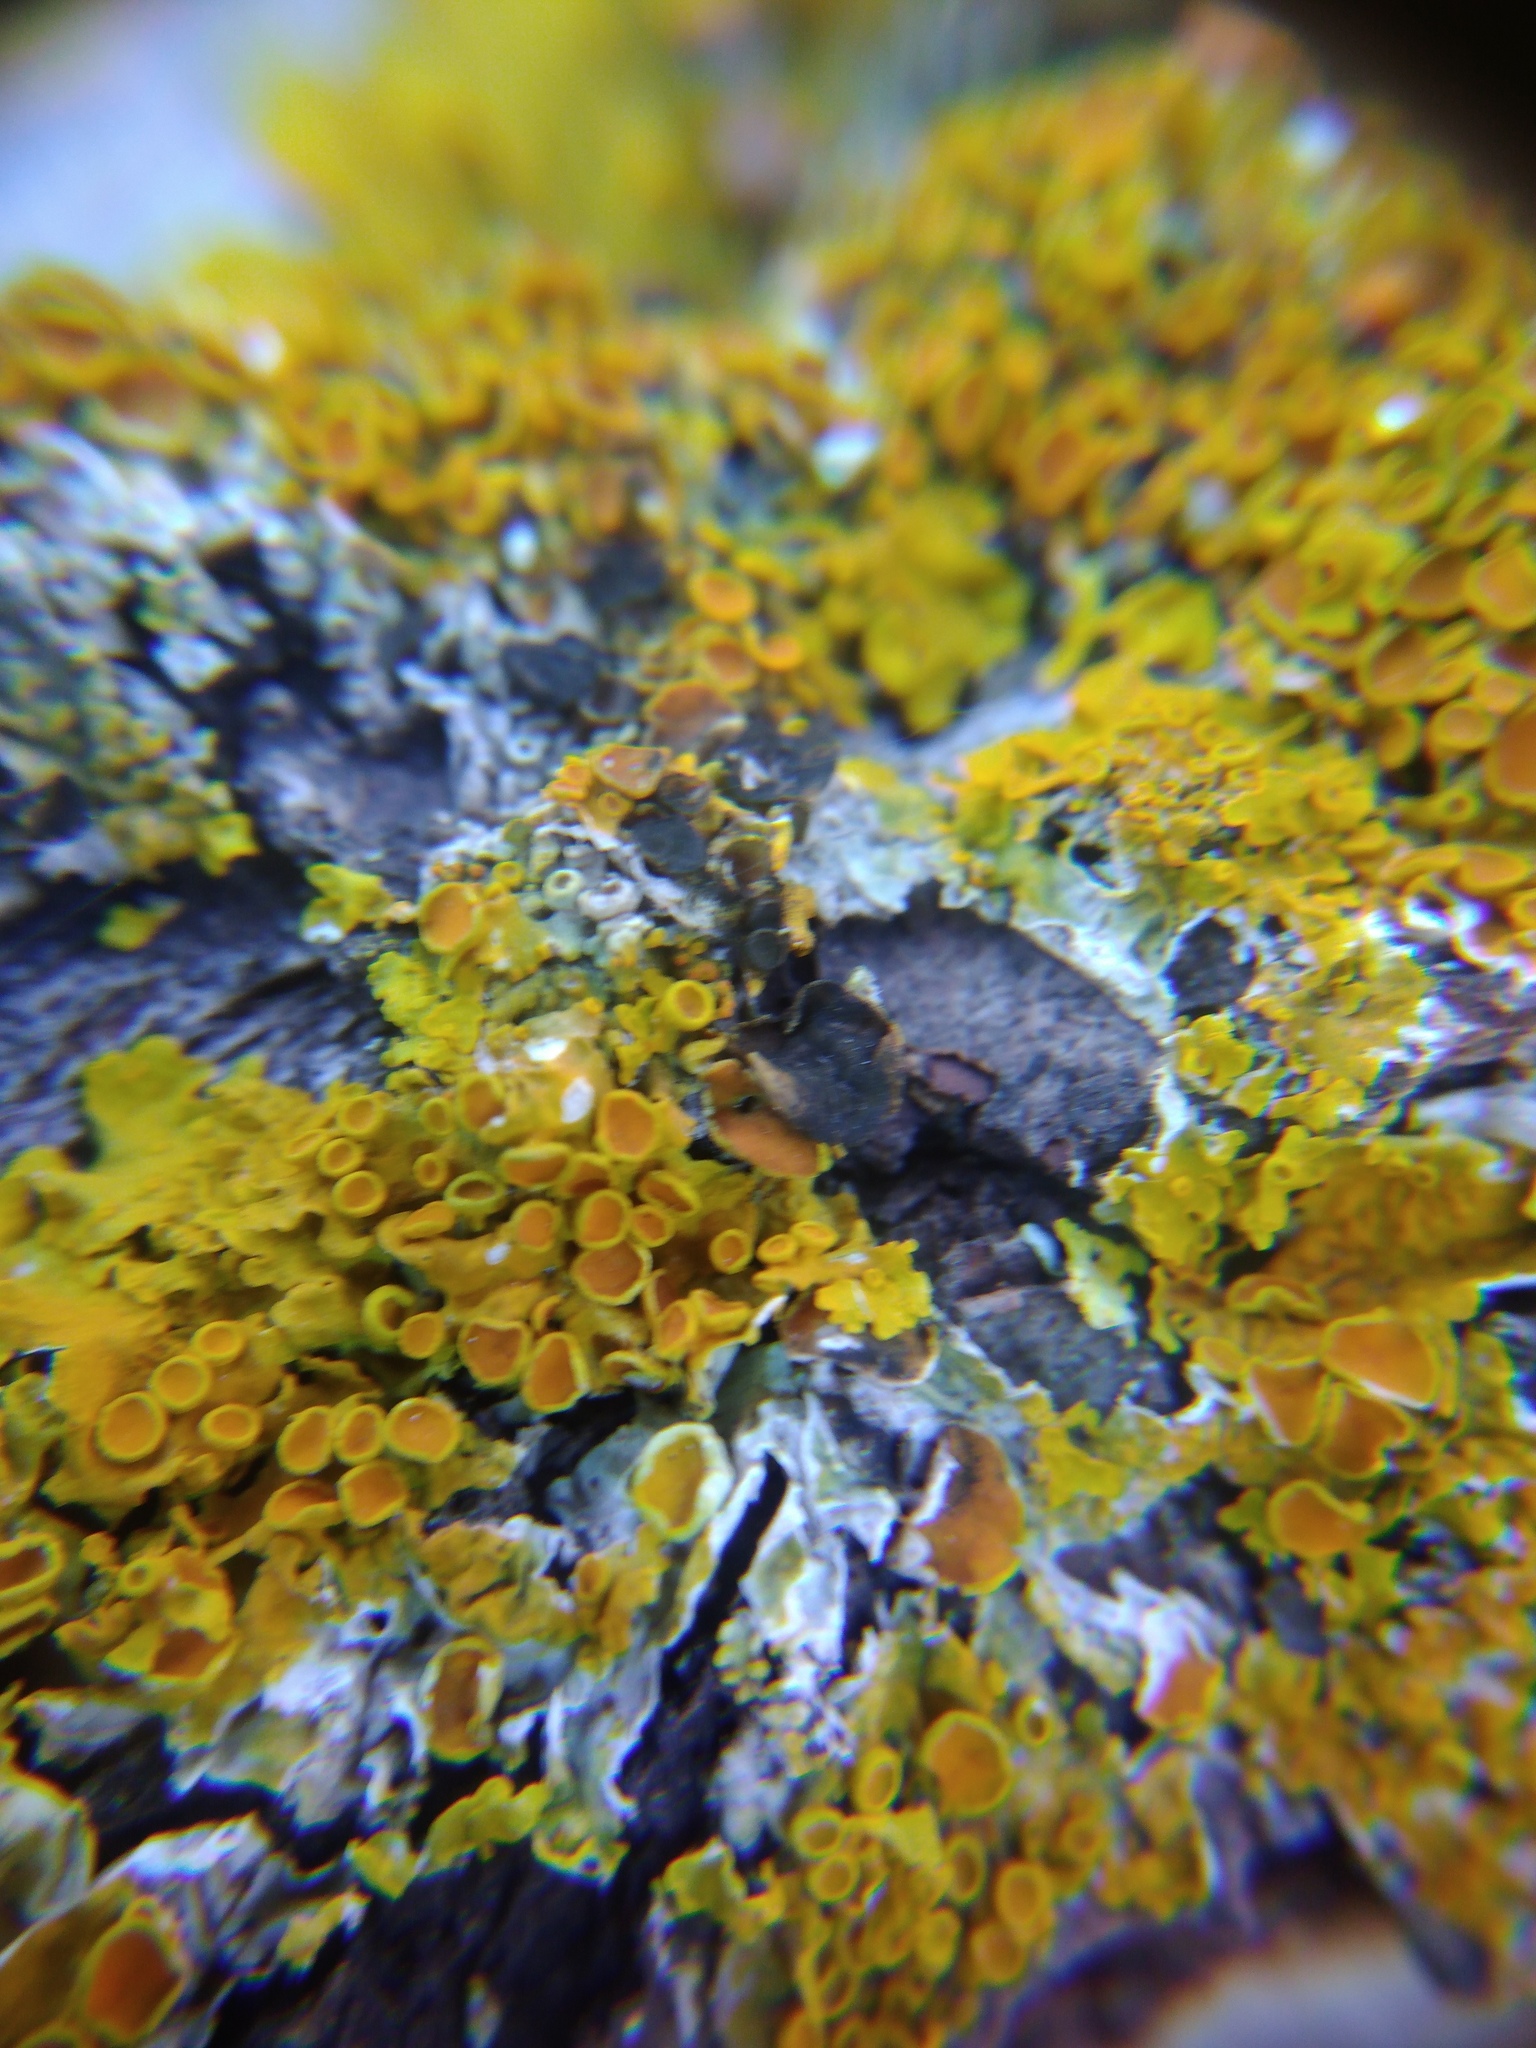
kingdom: Fungi
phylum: Ascomycota
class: Dothideomycetes
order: Mycosphaerellales
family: Teratosphaeriaceae
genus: Xanthoriicola
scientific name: Xanthoriicola physciae
